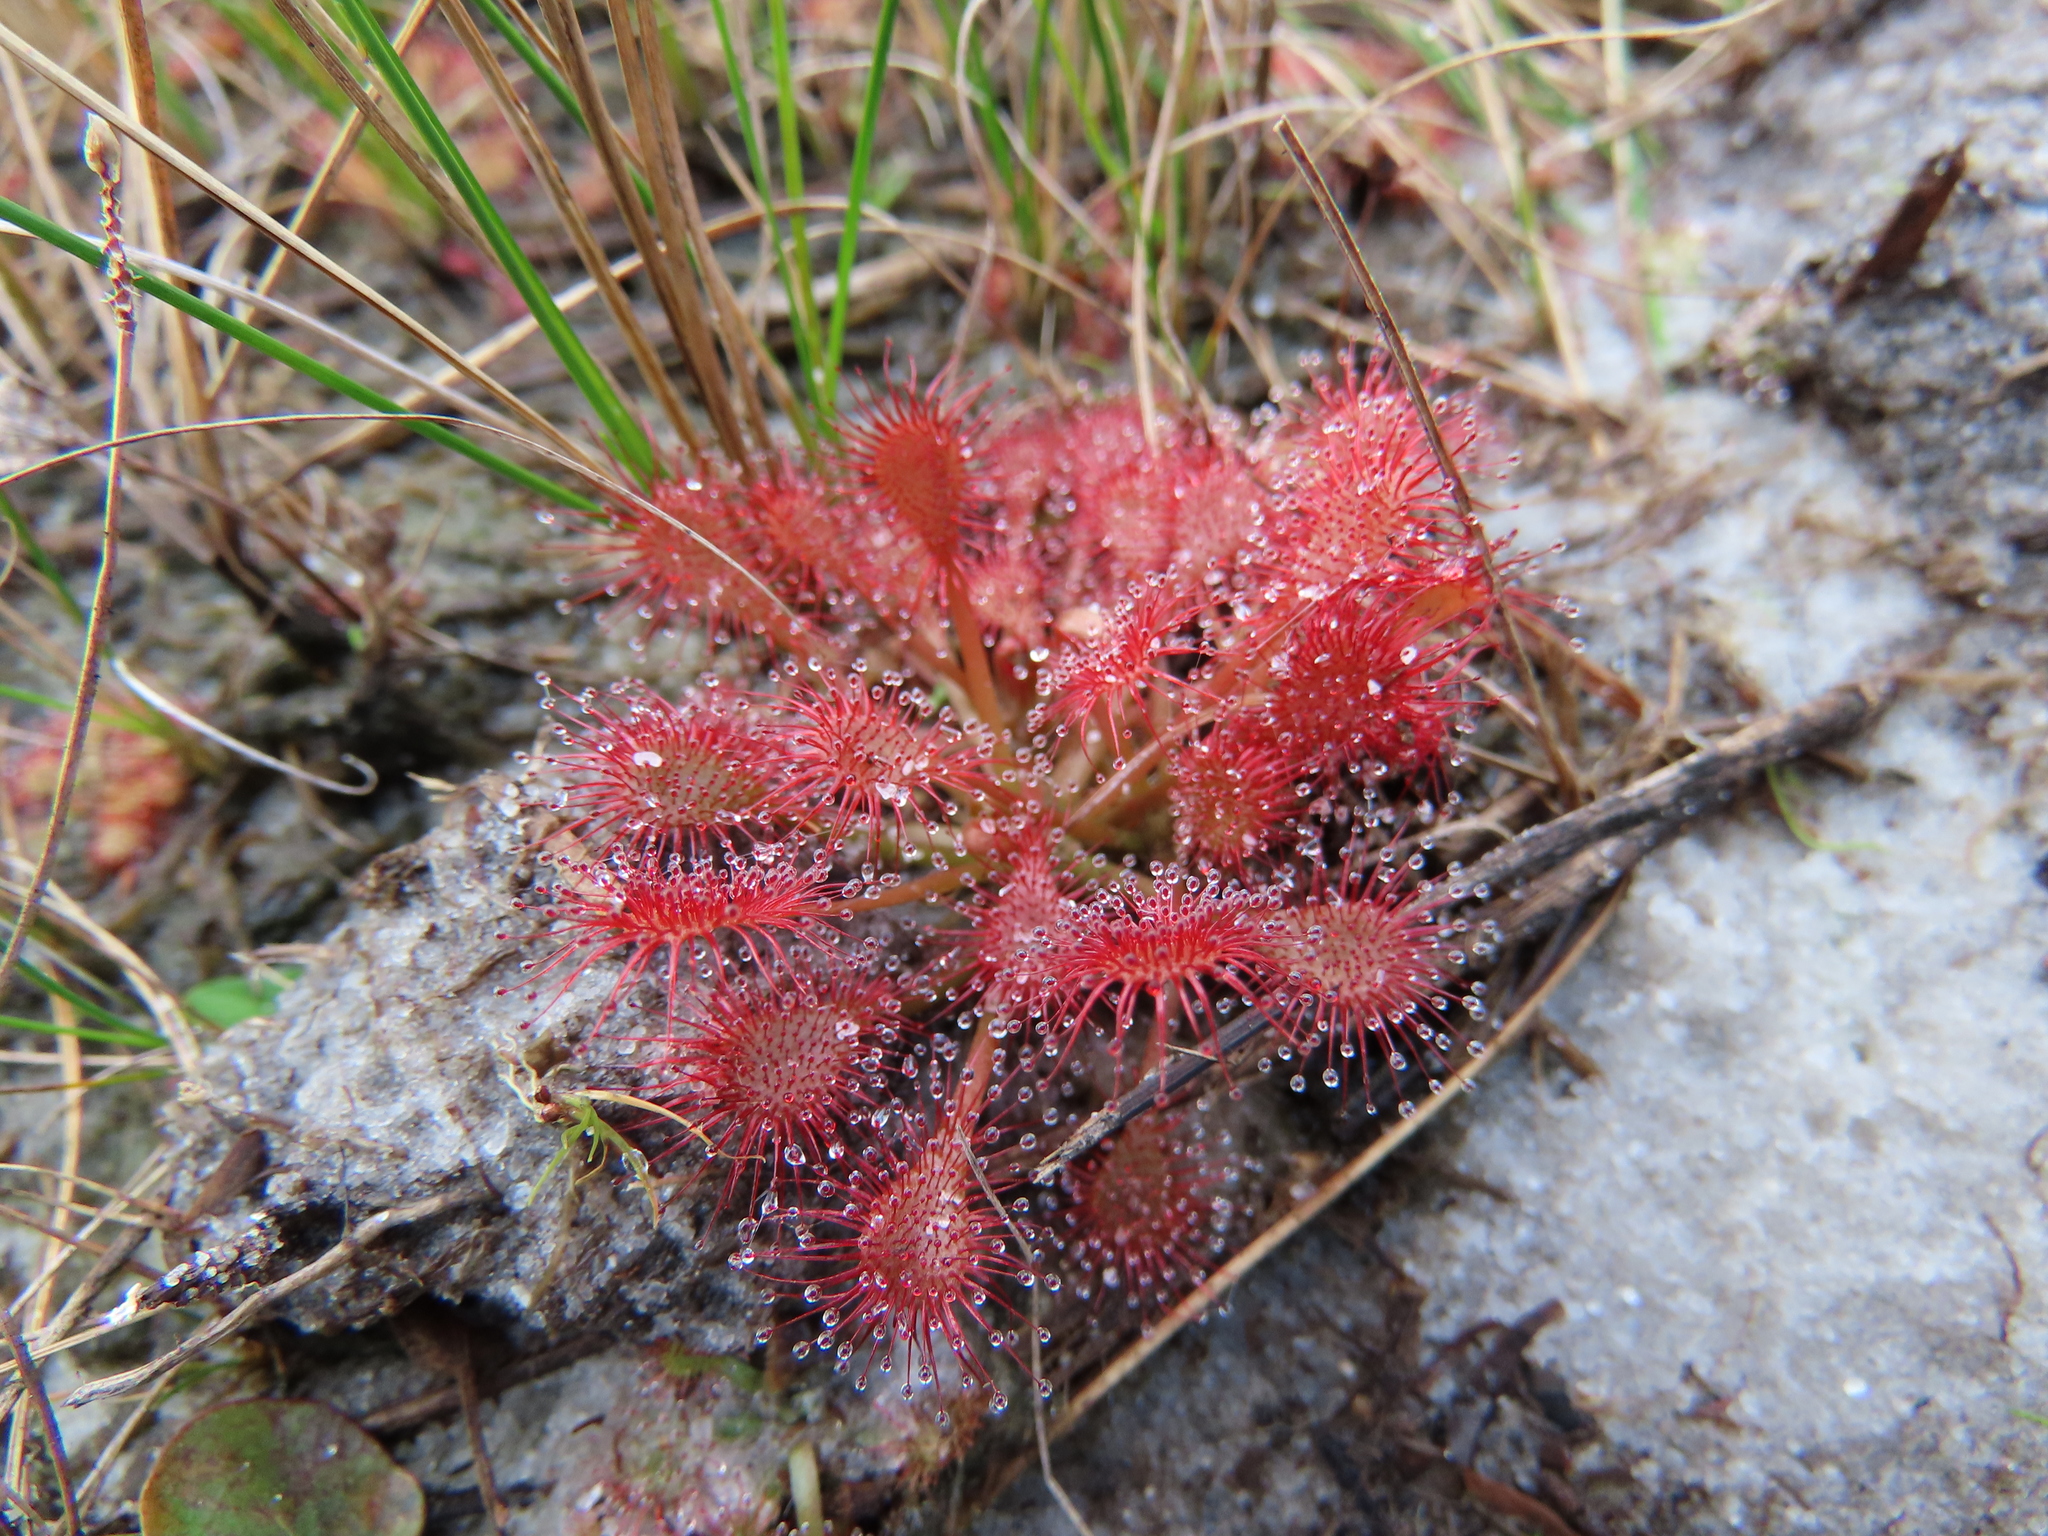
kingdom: Plantae
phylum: Tracheophyta
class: Magnoliopsida
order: Caryophyllales
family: Droseraceae
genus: Drosera
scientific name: Drosera capillaris
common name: Pink sundew
